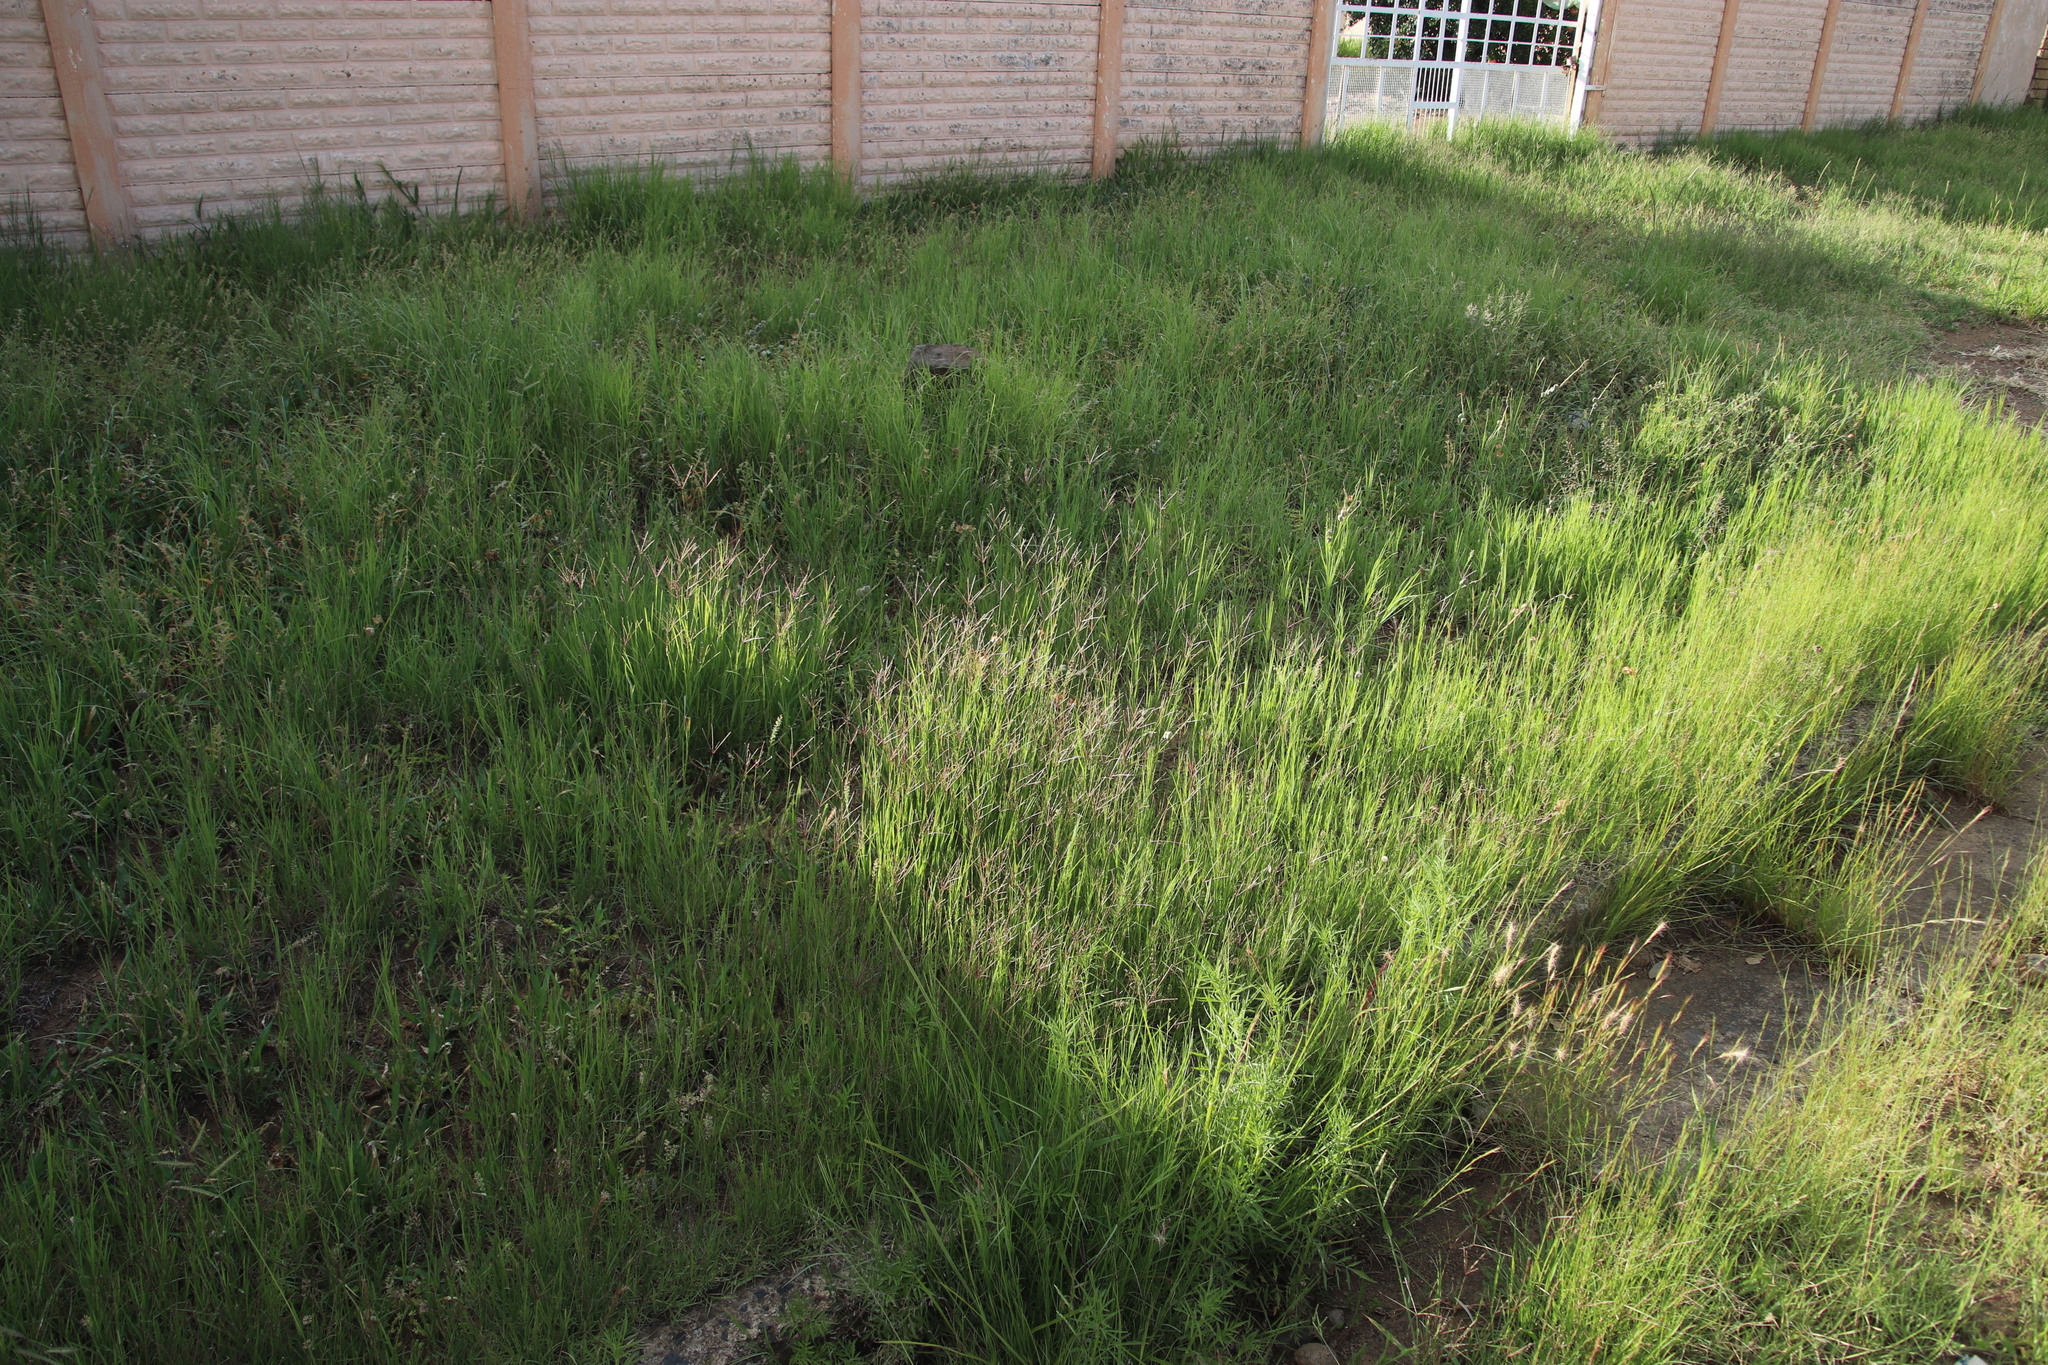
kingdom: Plantae
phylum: Tracheophyta
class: Liliopsida
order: Poales
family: Poaceae
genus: Chloris
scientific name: Chloris pycnothrix
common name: Spiderweb chloris
